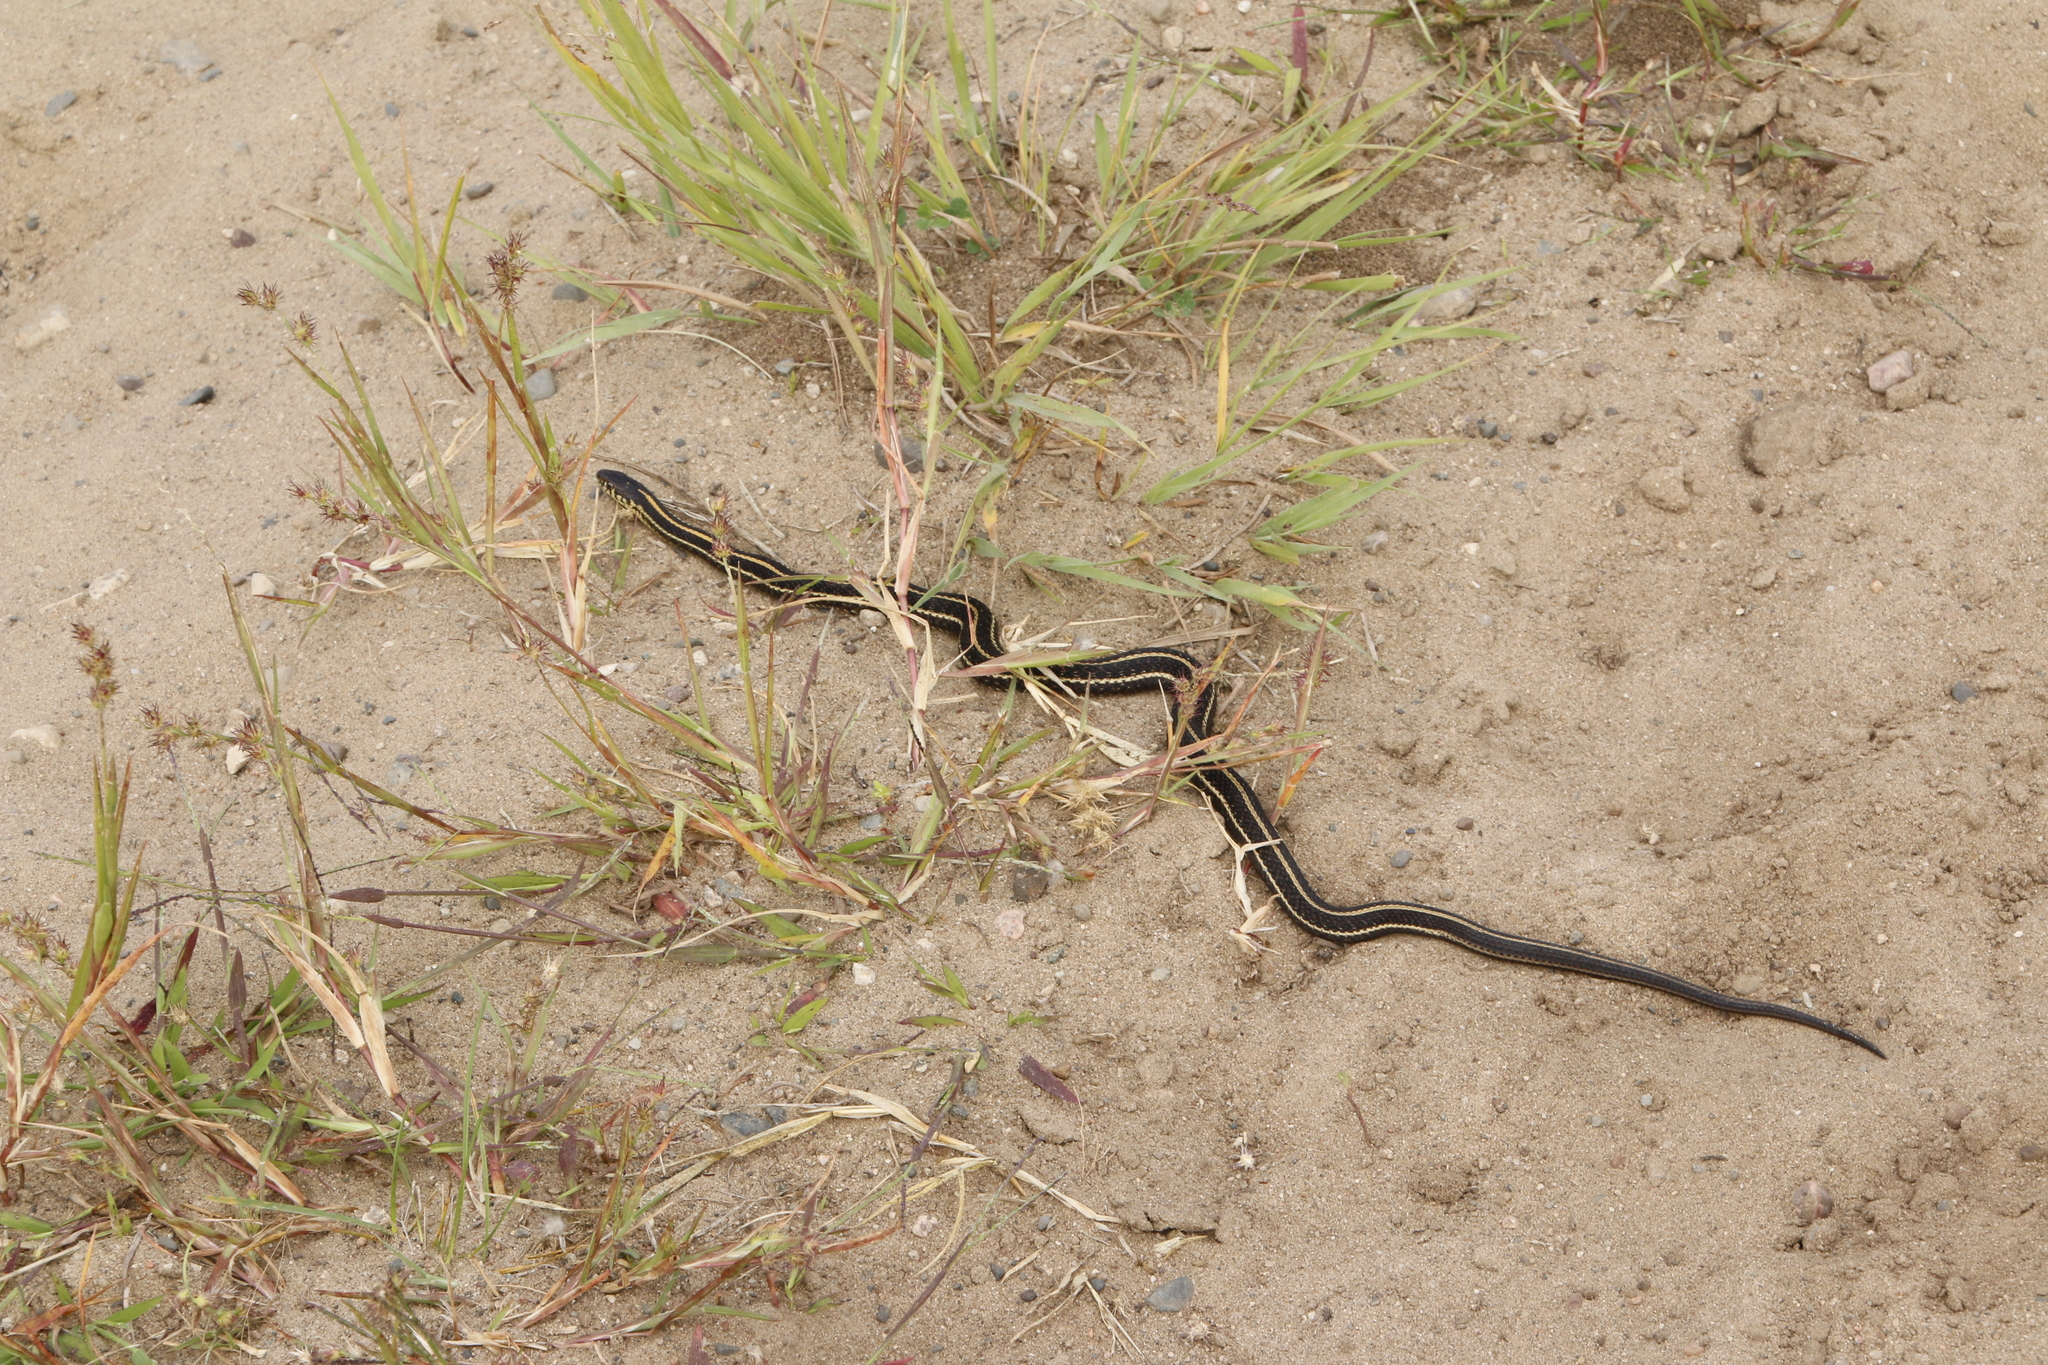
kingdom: Animalia
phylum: Chordata
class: Squamata
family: Colubridae
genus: Thamnophis
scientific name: Thamnophis radix
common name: Plains garter snake
